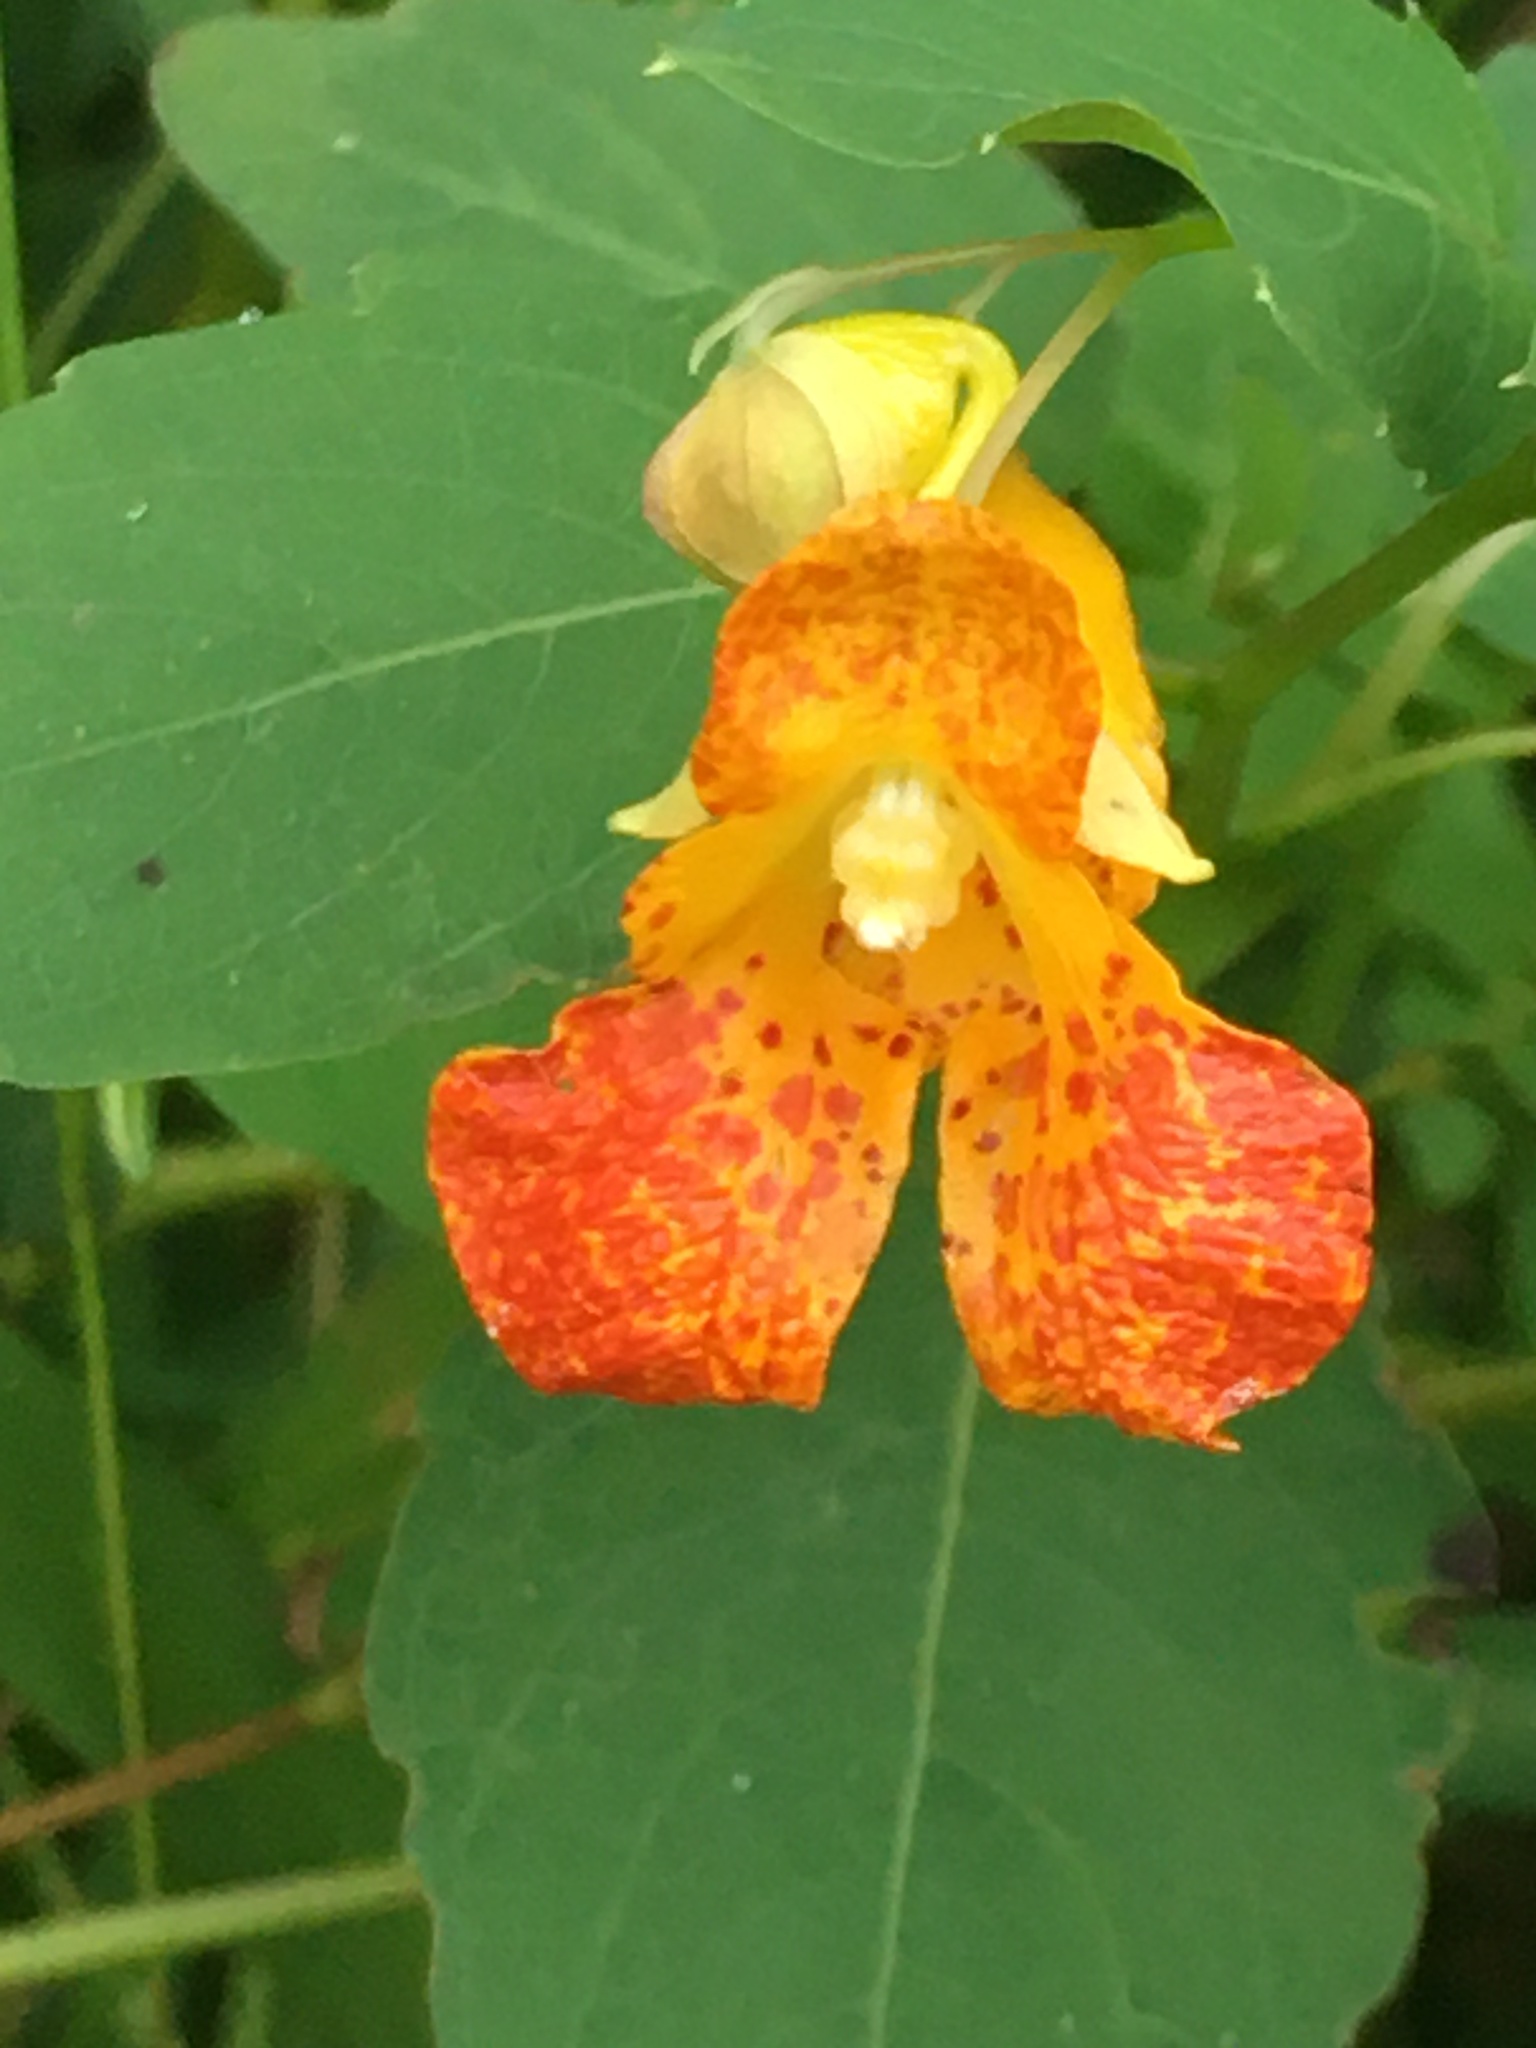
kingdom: Plantae
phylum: Tracheophyta
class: Magnoliopsida
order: Ericales
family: Balsaminaceae
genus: Impatiens
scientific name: Impatiens capensis
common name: Orange balsam
